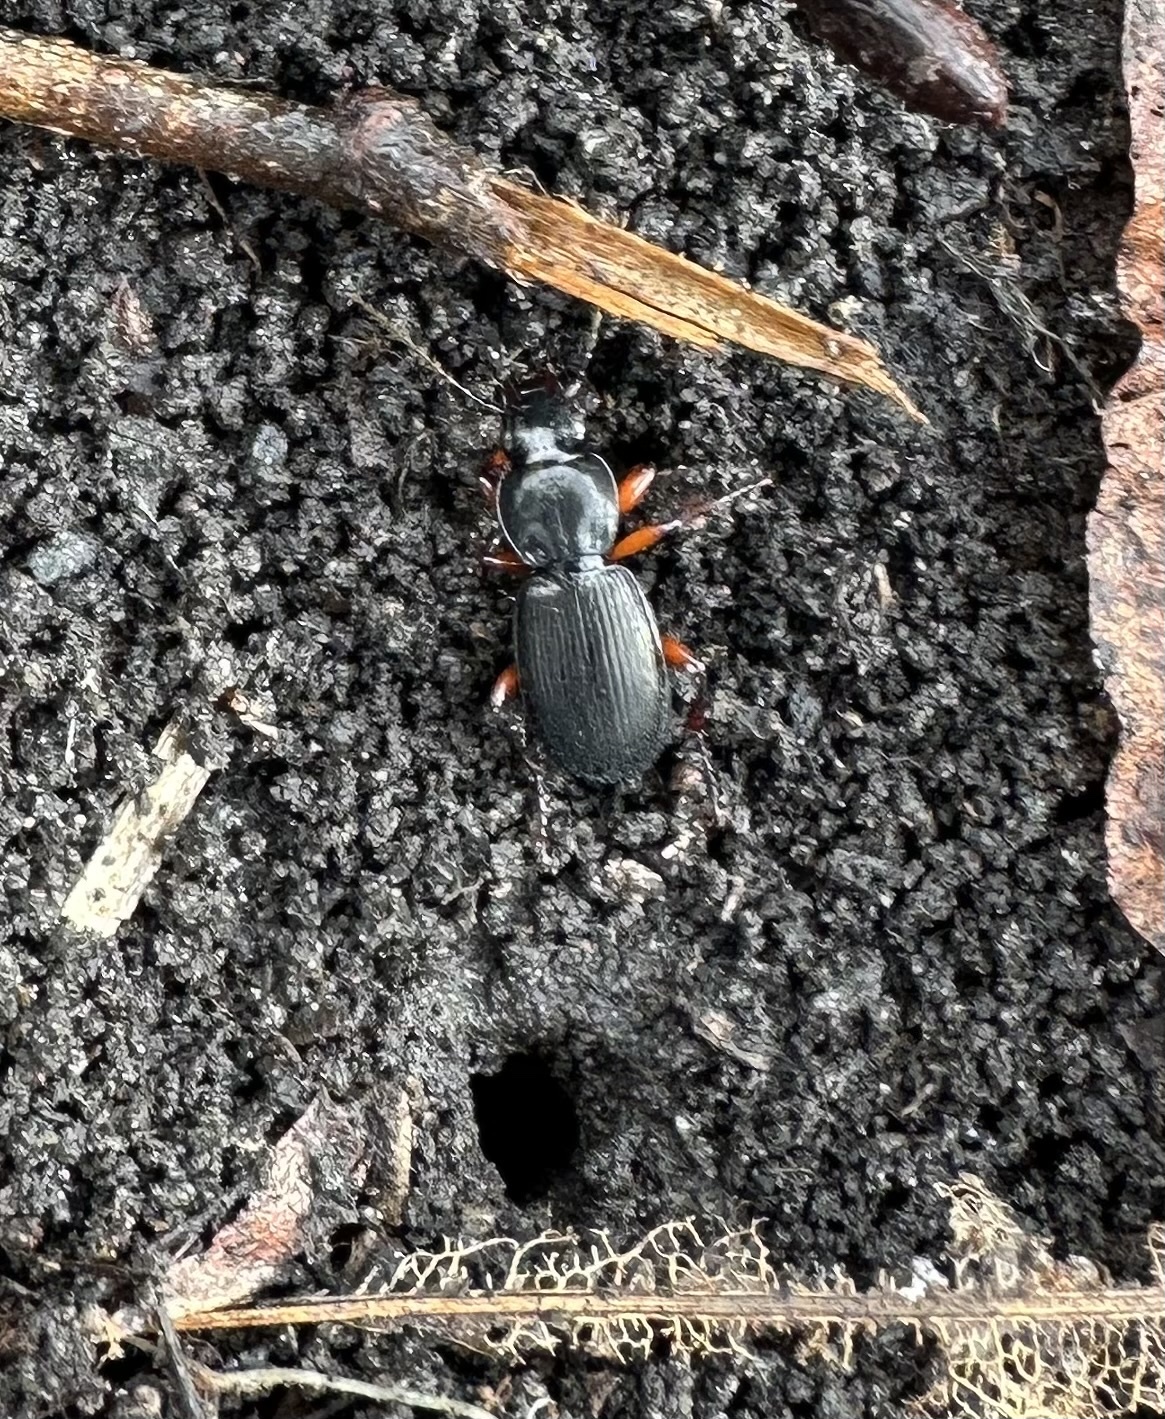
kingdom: Animalia
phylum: Arthropoda
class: Insecta
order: Coleoptera
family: Carabidae
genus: Pterostichus
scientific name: Pterostichus madidus
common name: Black clock
